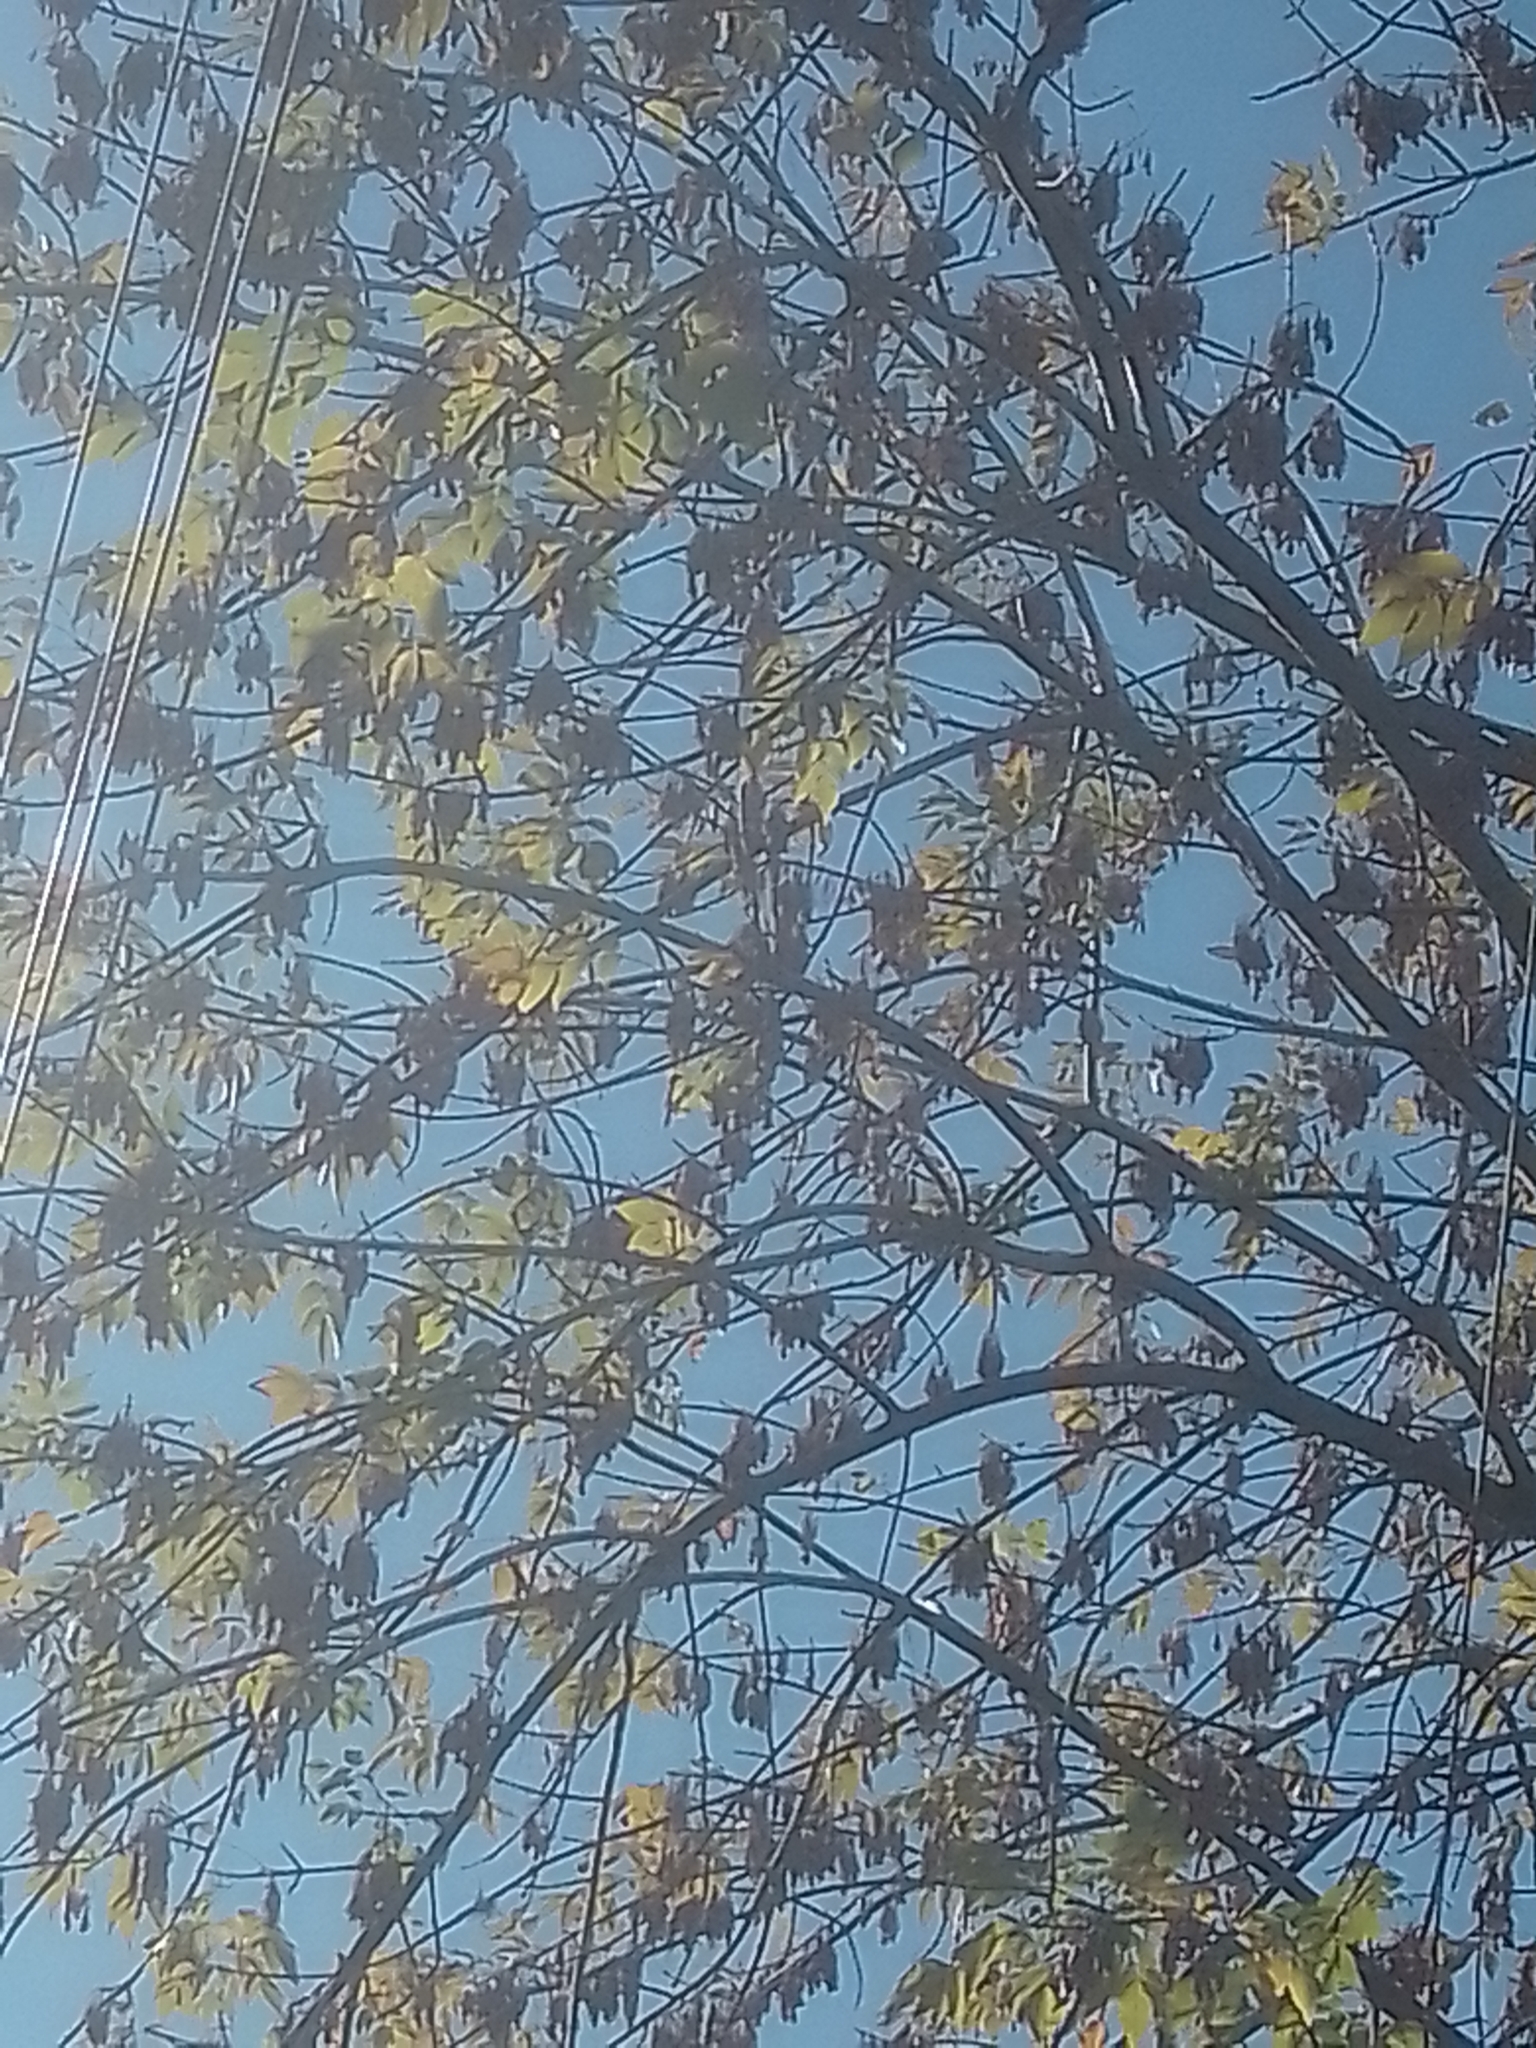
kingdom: Animalia
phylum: Chordata
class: Aves
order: Passeriformes
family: Furnariidae
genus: Furnarius
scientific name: Furnarius rufus
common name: Rufous hornero
